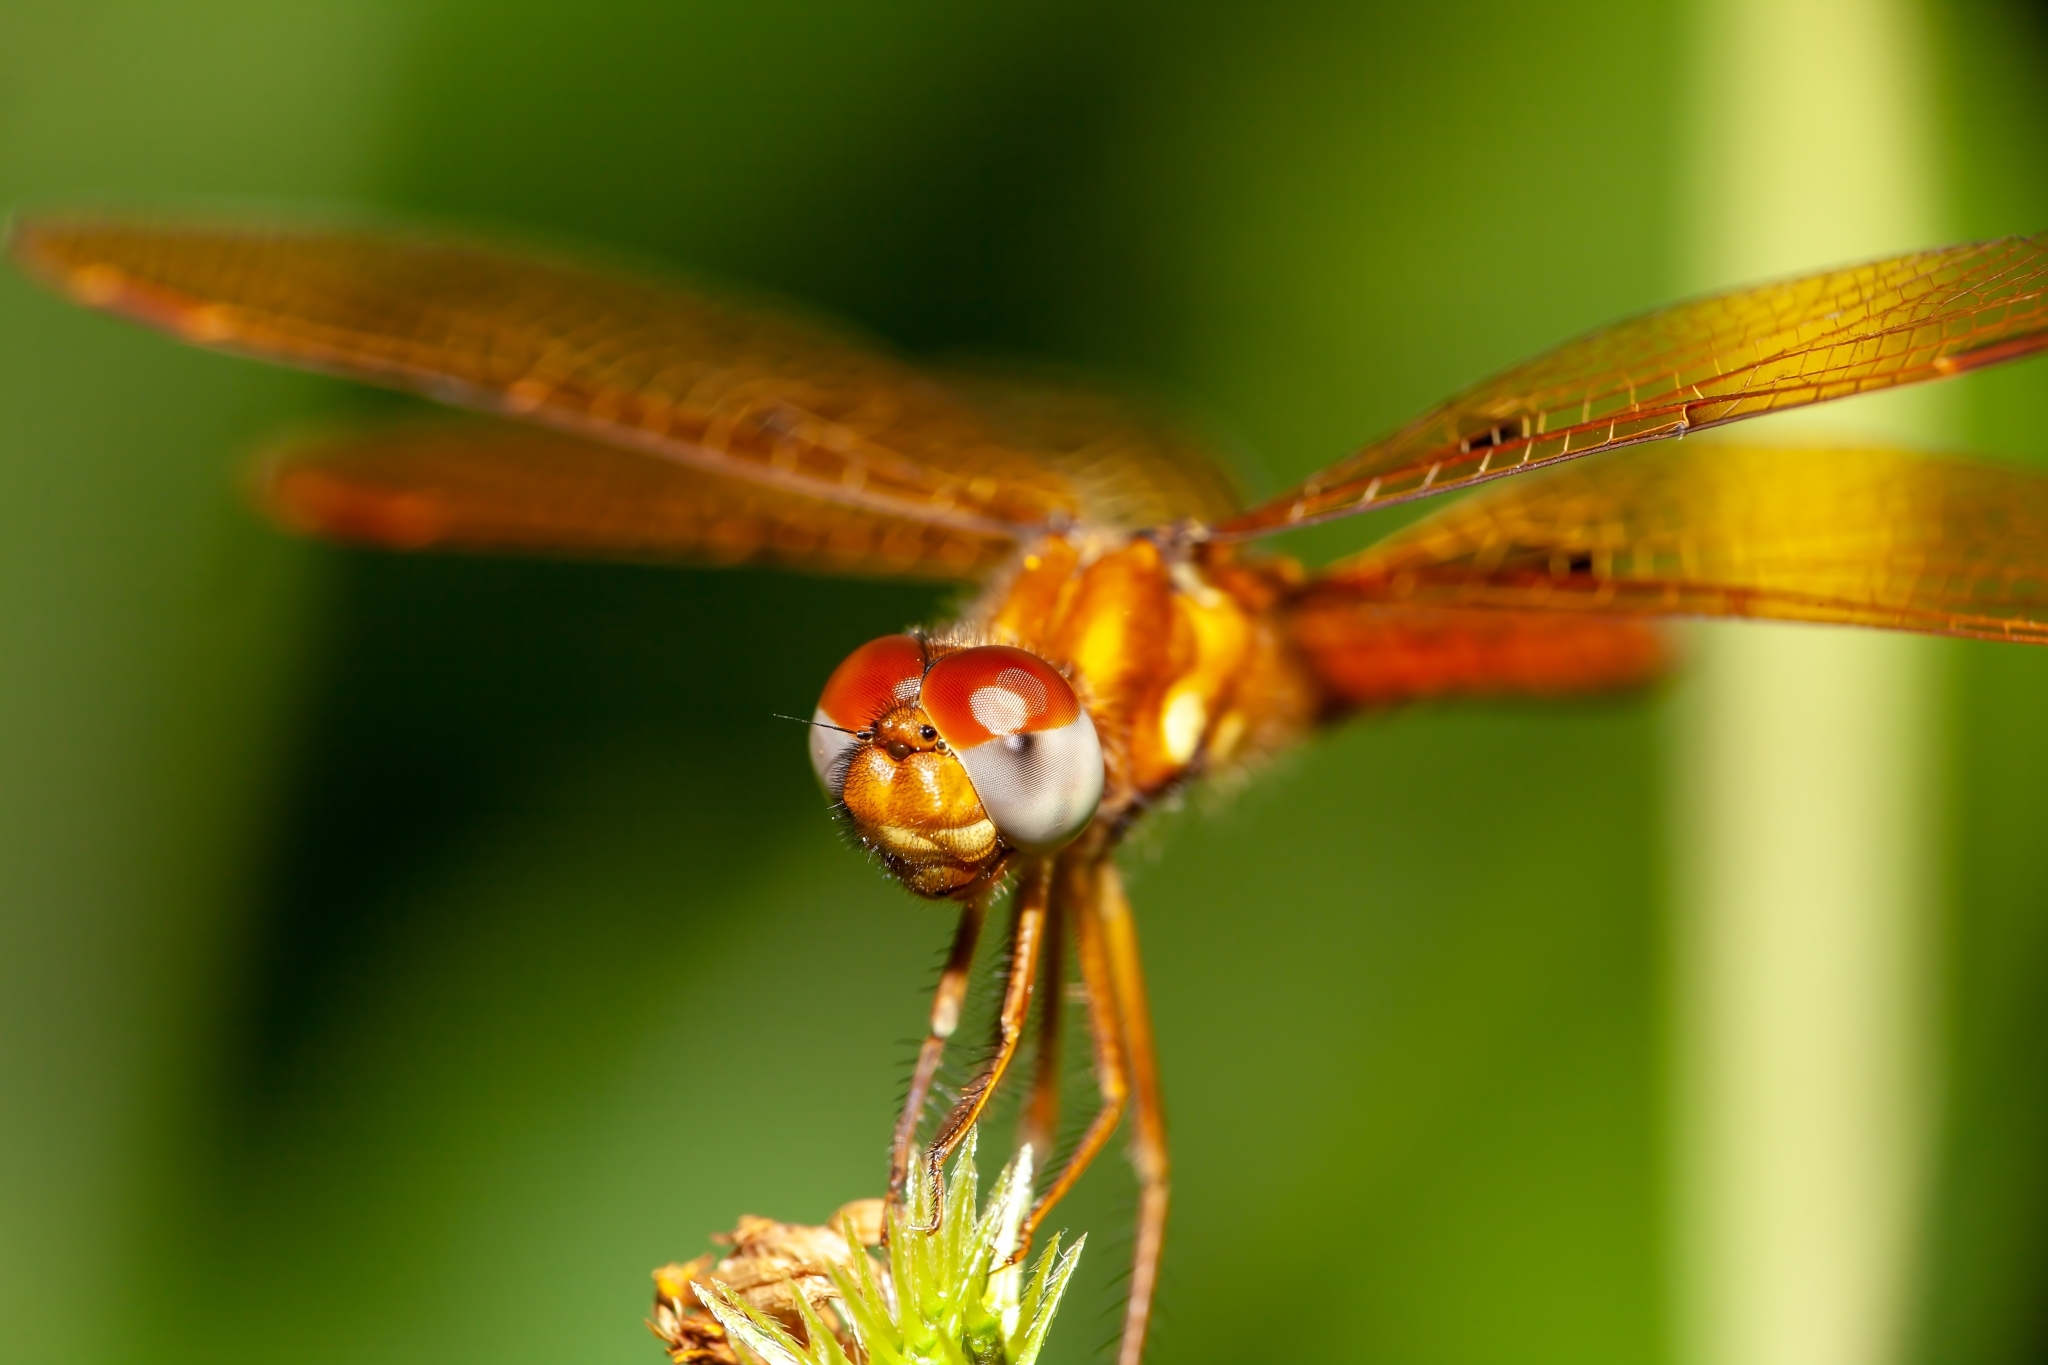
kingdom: Animalia
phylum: Arthropoda
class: Insecta
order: Odonata
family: Libellulidae
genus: Perithemis
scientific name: Perithemis tenera
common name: Eastern amberwing
